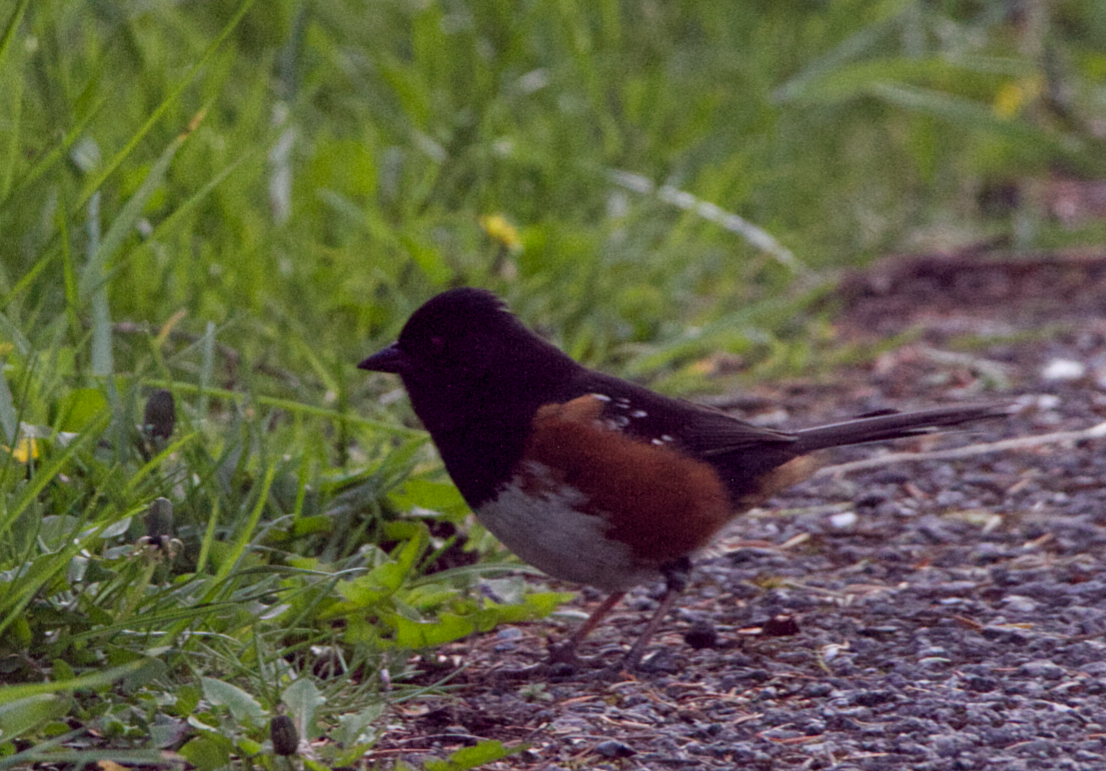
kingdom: Animalia
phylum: Chordata
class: Aves
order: Passeriformes
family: Passerellidae
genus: Pipilo
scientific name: Pipilo maculatus
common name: Spotted towhee
